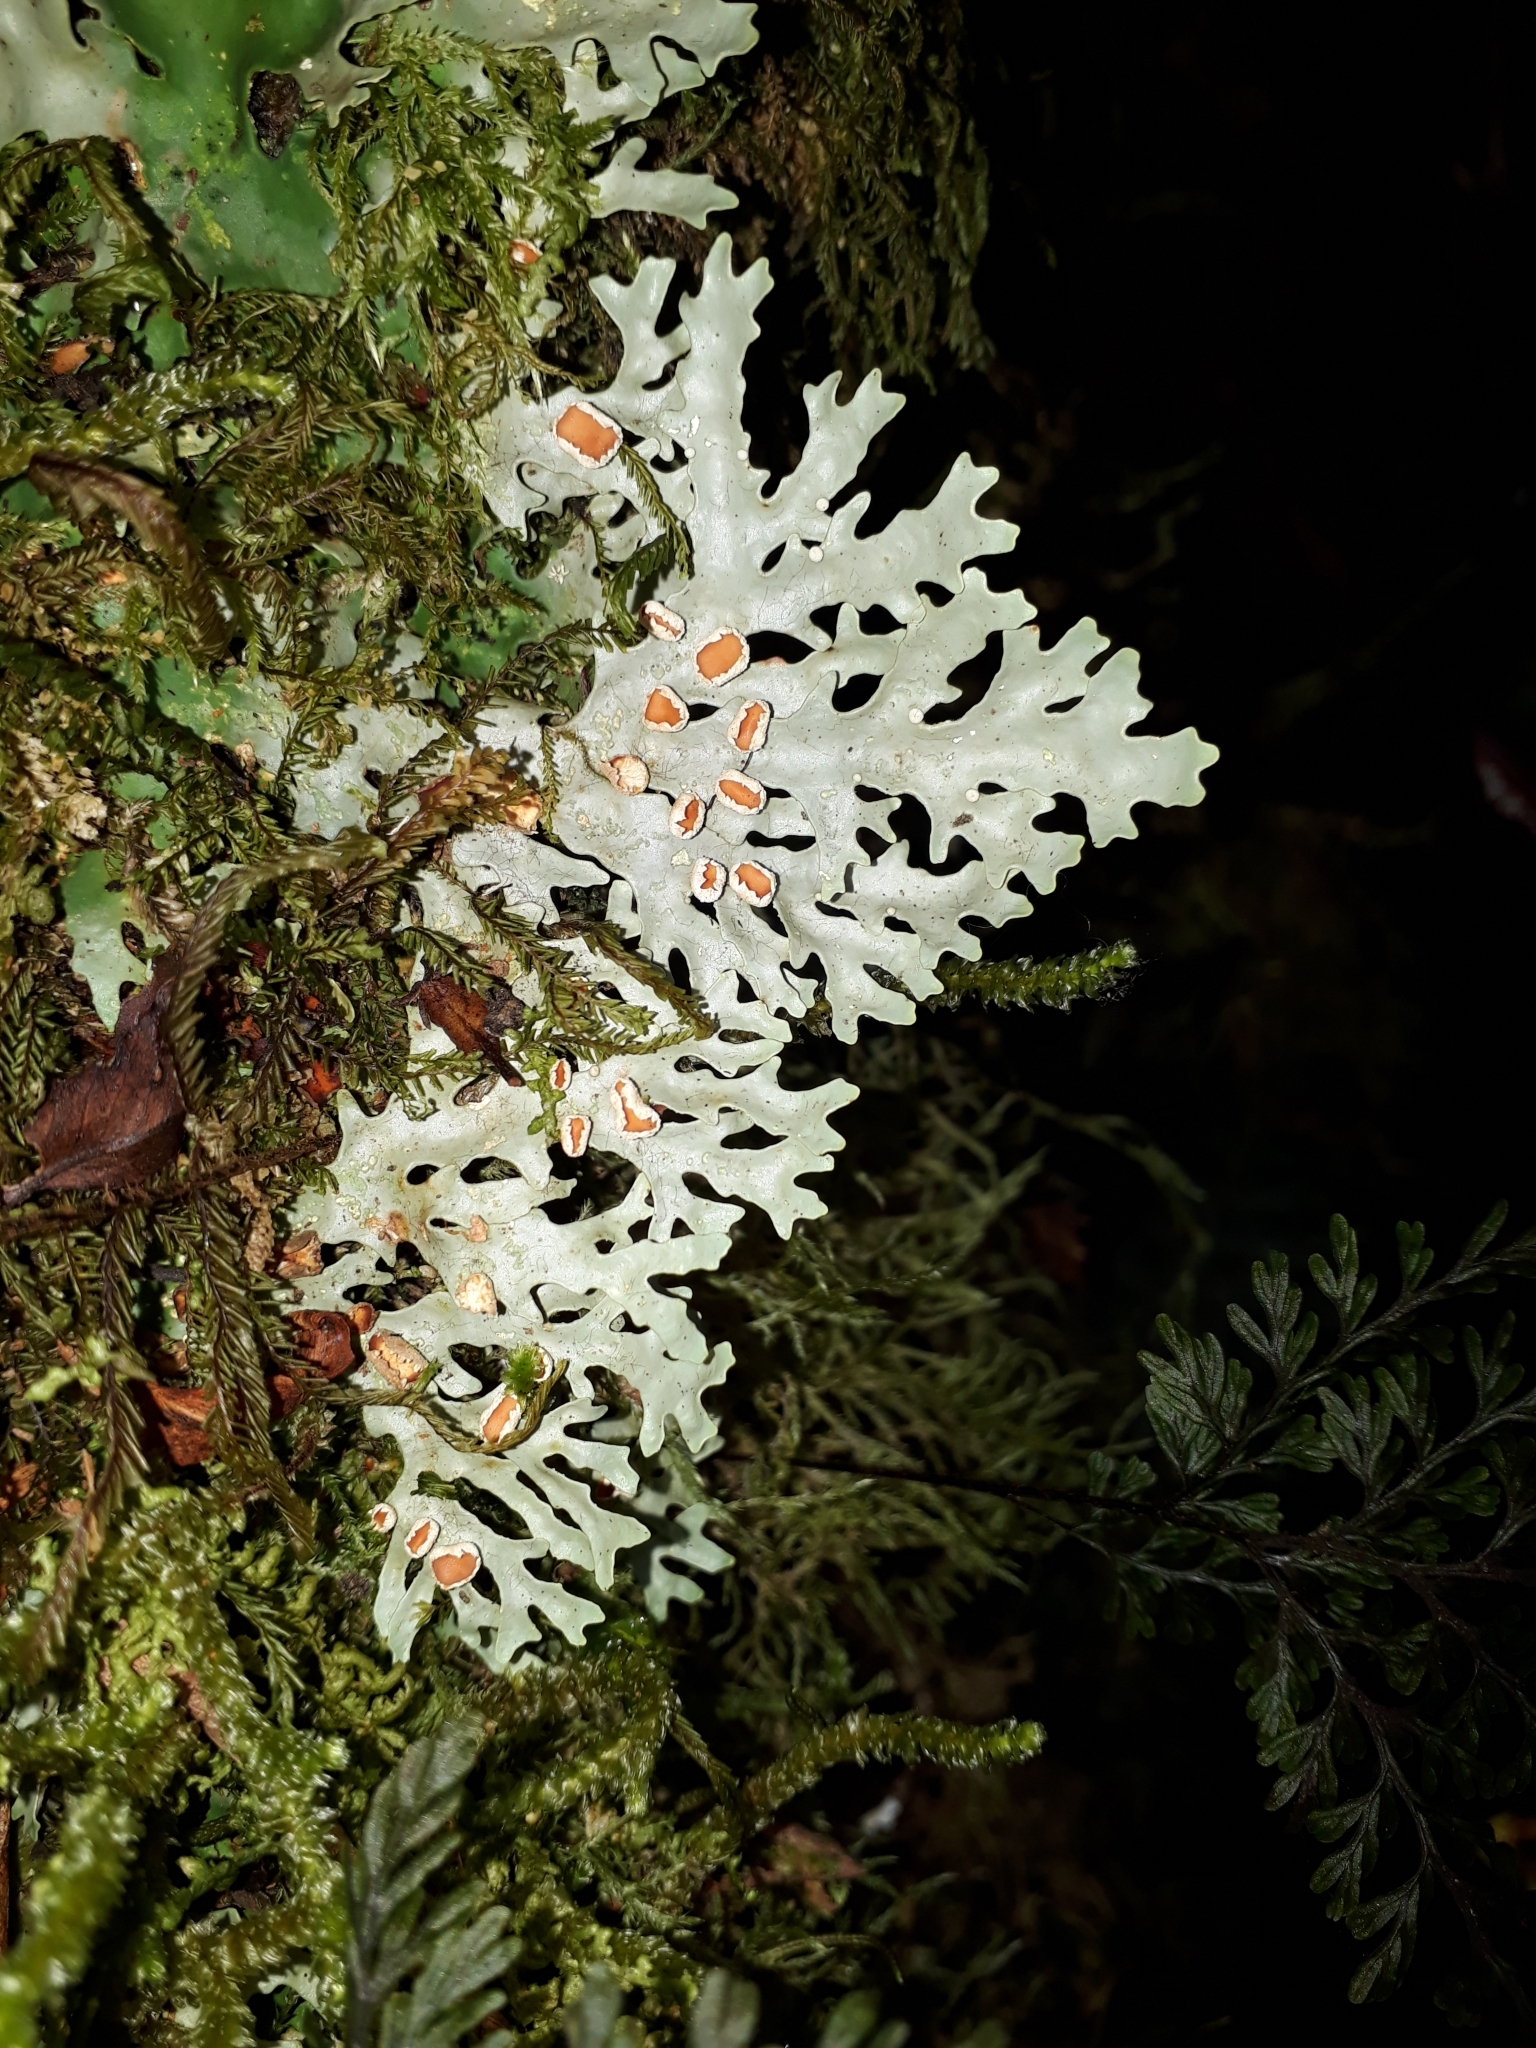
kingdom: Fungi
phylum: Ascomycota
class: Lecanoromycetes
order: Peltigerales
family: Lobariaceae
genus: Pseudocyphellaria
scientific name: Pseudocyphellaria homeophylla
